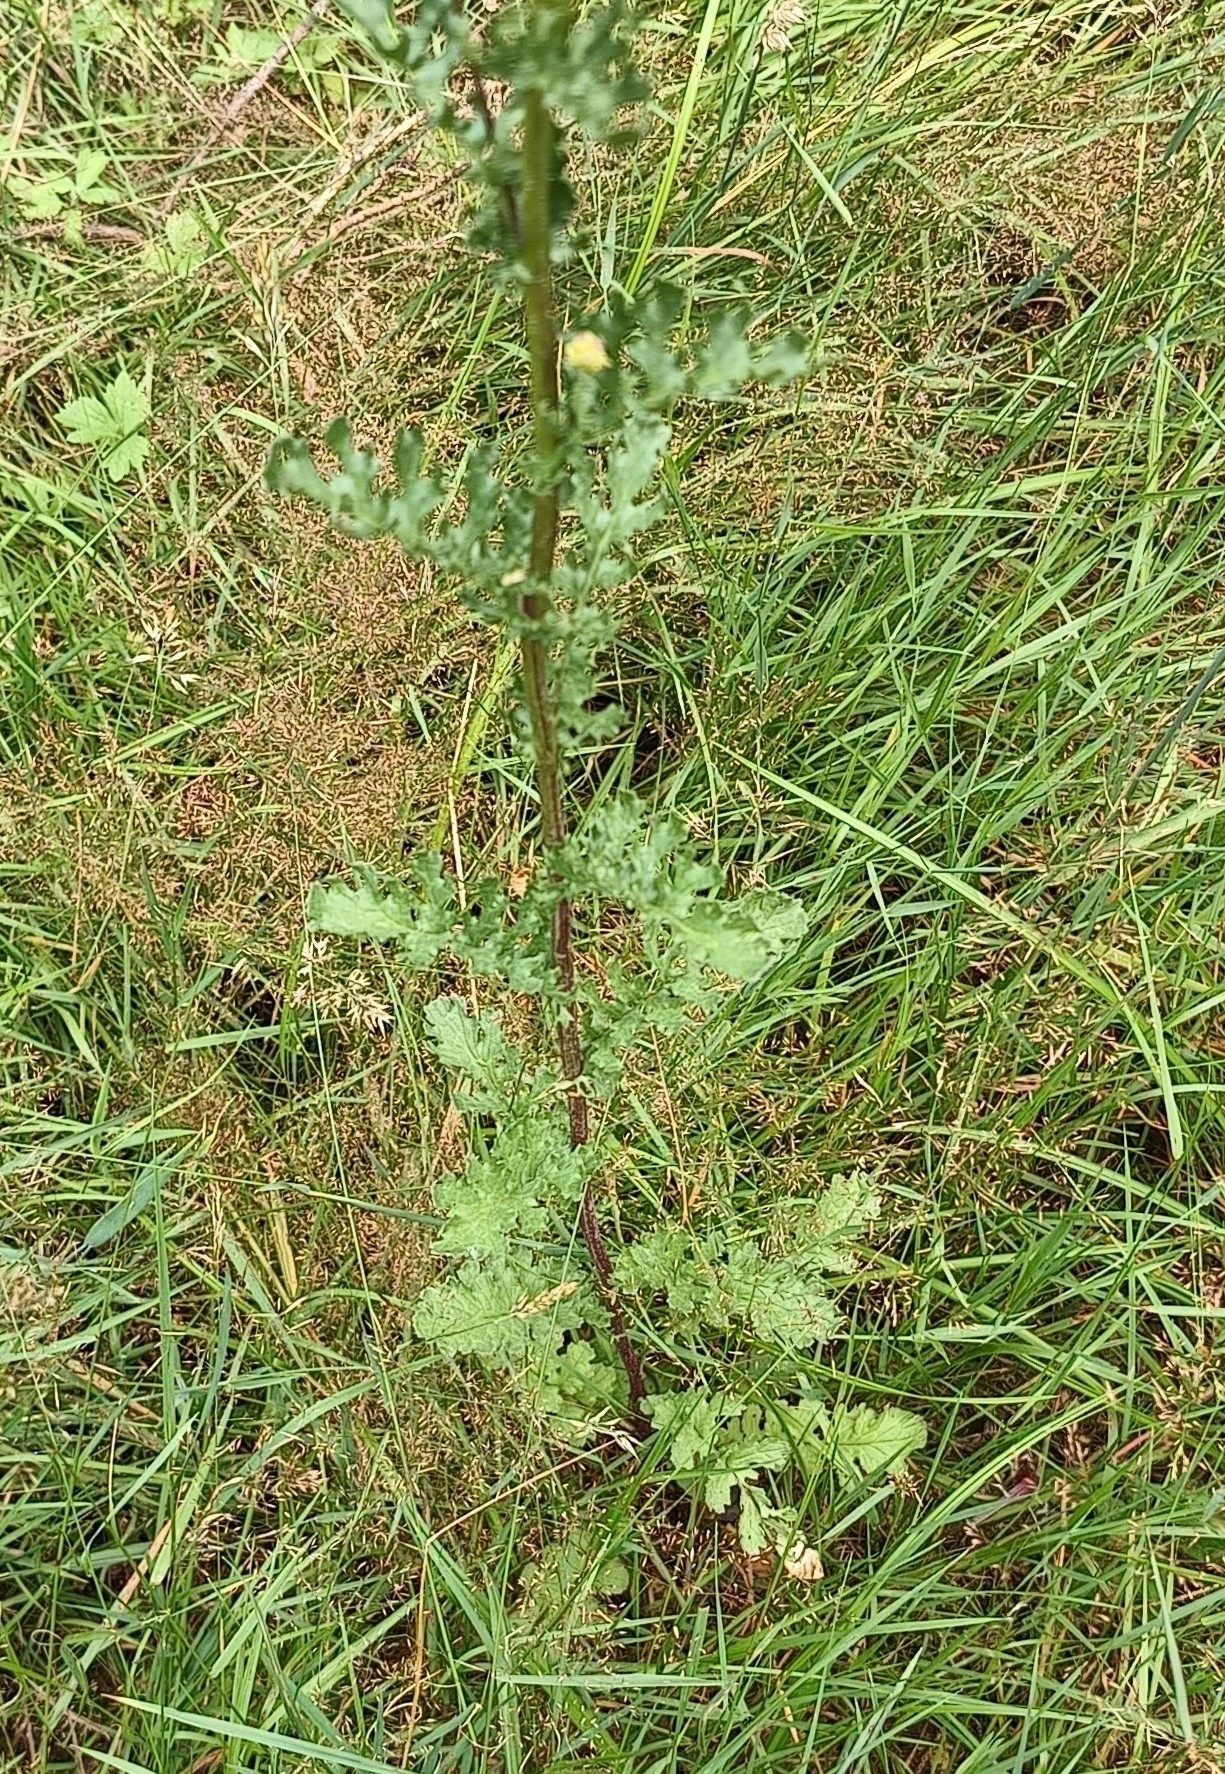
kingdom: Plantae
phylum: Tracheophyta
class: Magnoliopsida
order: Asterales
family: Asteraceae
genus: Jacobaea
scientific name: Jacobaea vulgaris
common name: Stinking willie
